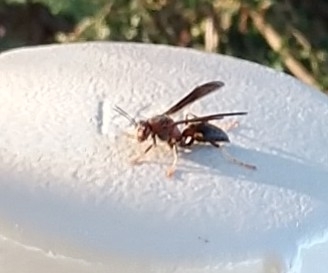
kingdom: Animalia
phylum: Arthropoda
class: Insecta
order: Hymenoptera
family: Eumenidae
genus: Polistes
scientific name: Polistes metricus
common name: Metric paper wasp
